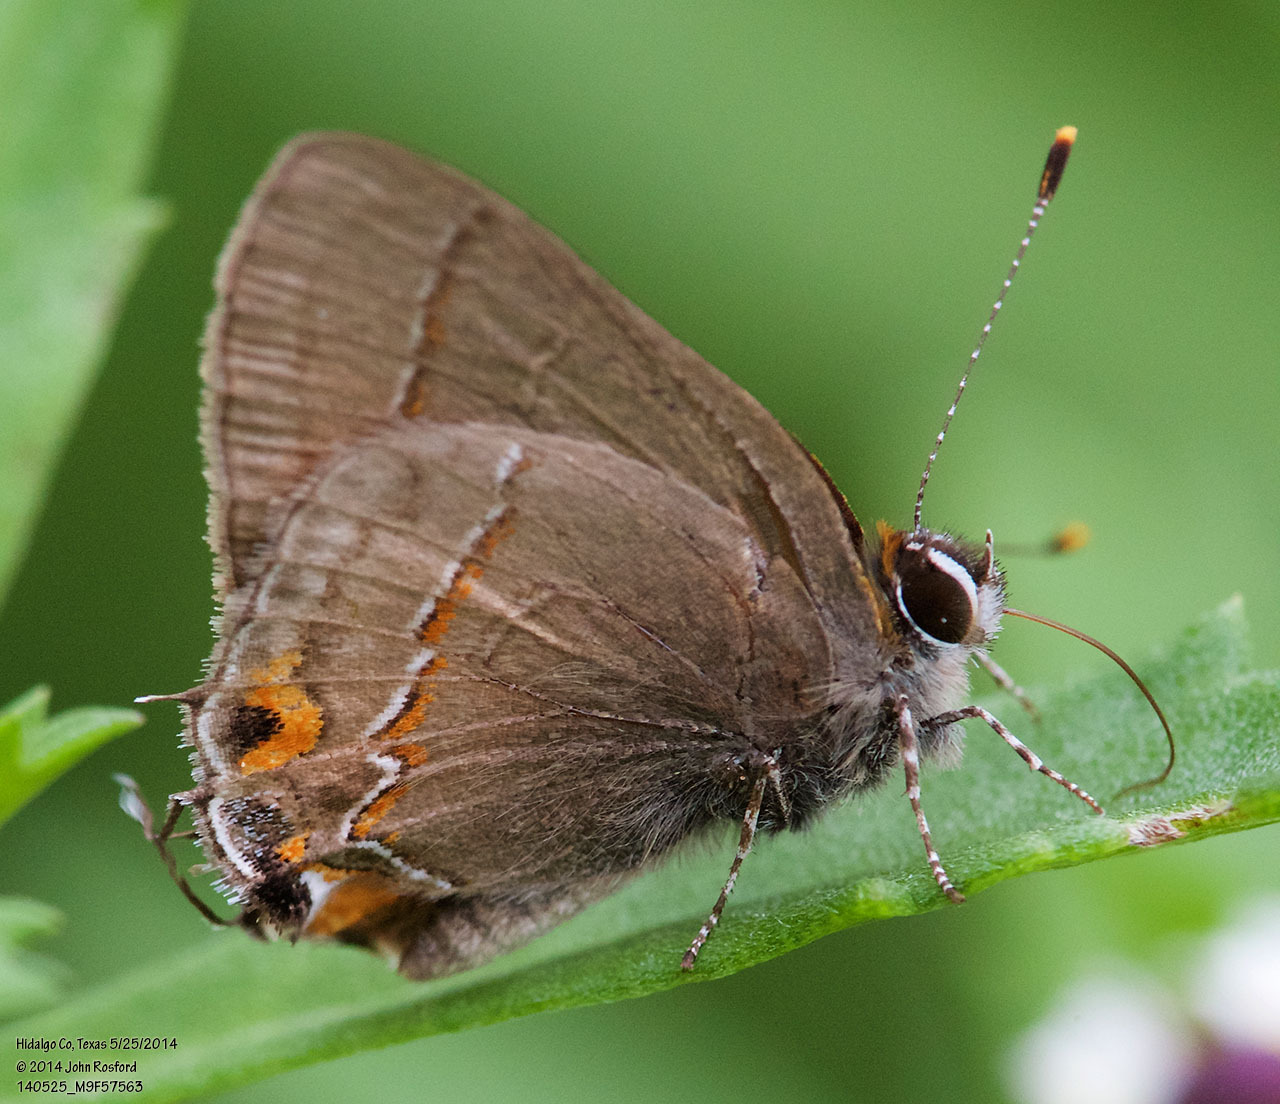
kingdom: Animalia
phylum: Arthropoda
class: Insecta
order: Lepidoptera
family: Lycaenidae
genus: Electrostrymon
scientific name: Electrostrymon endymion
